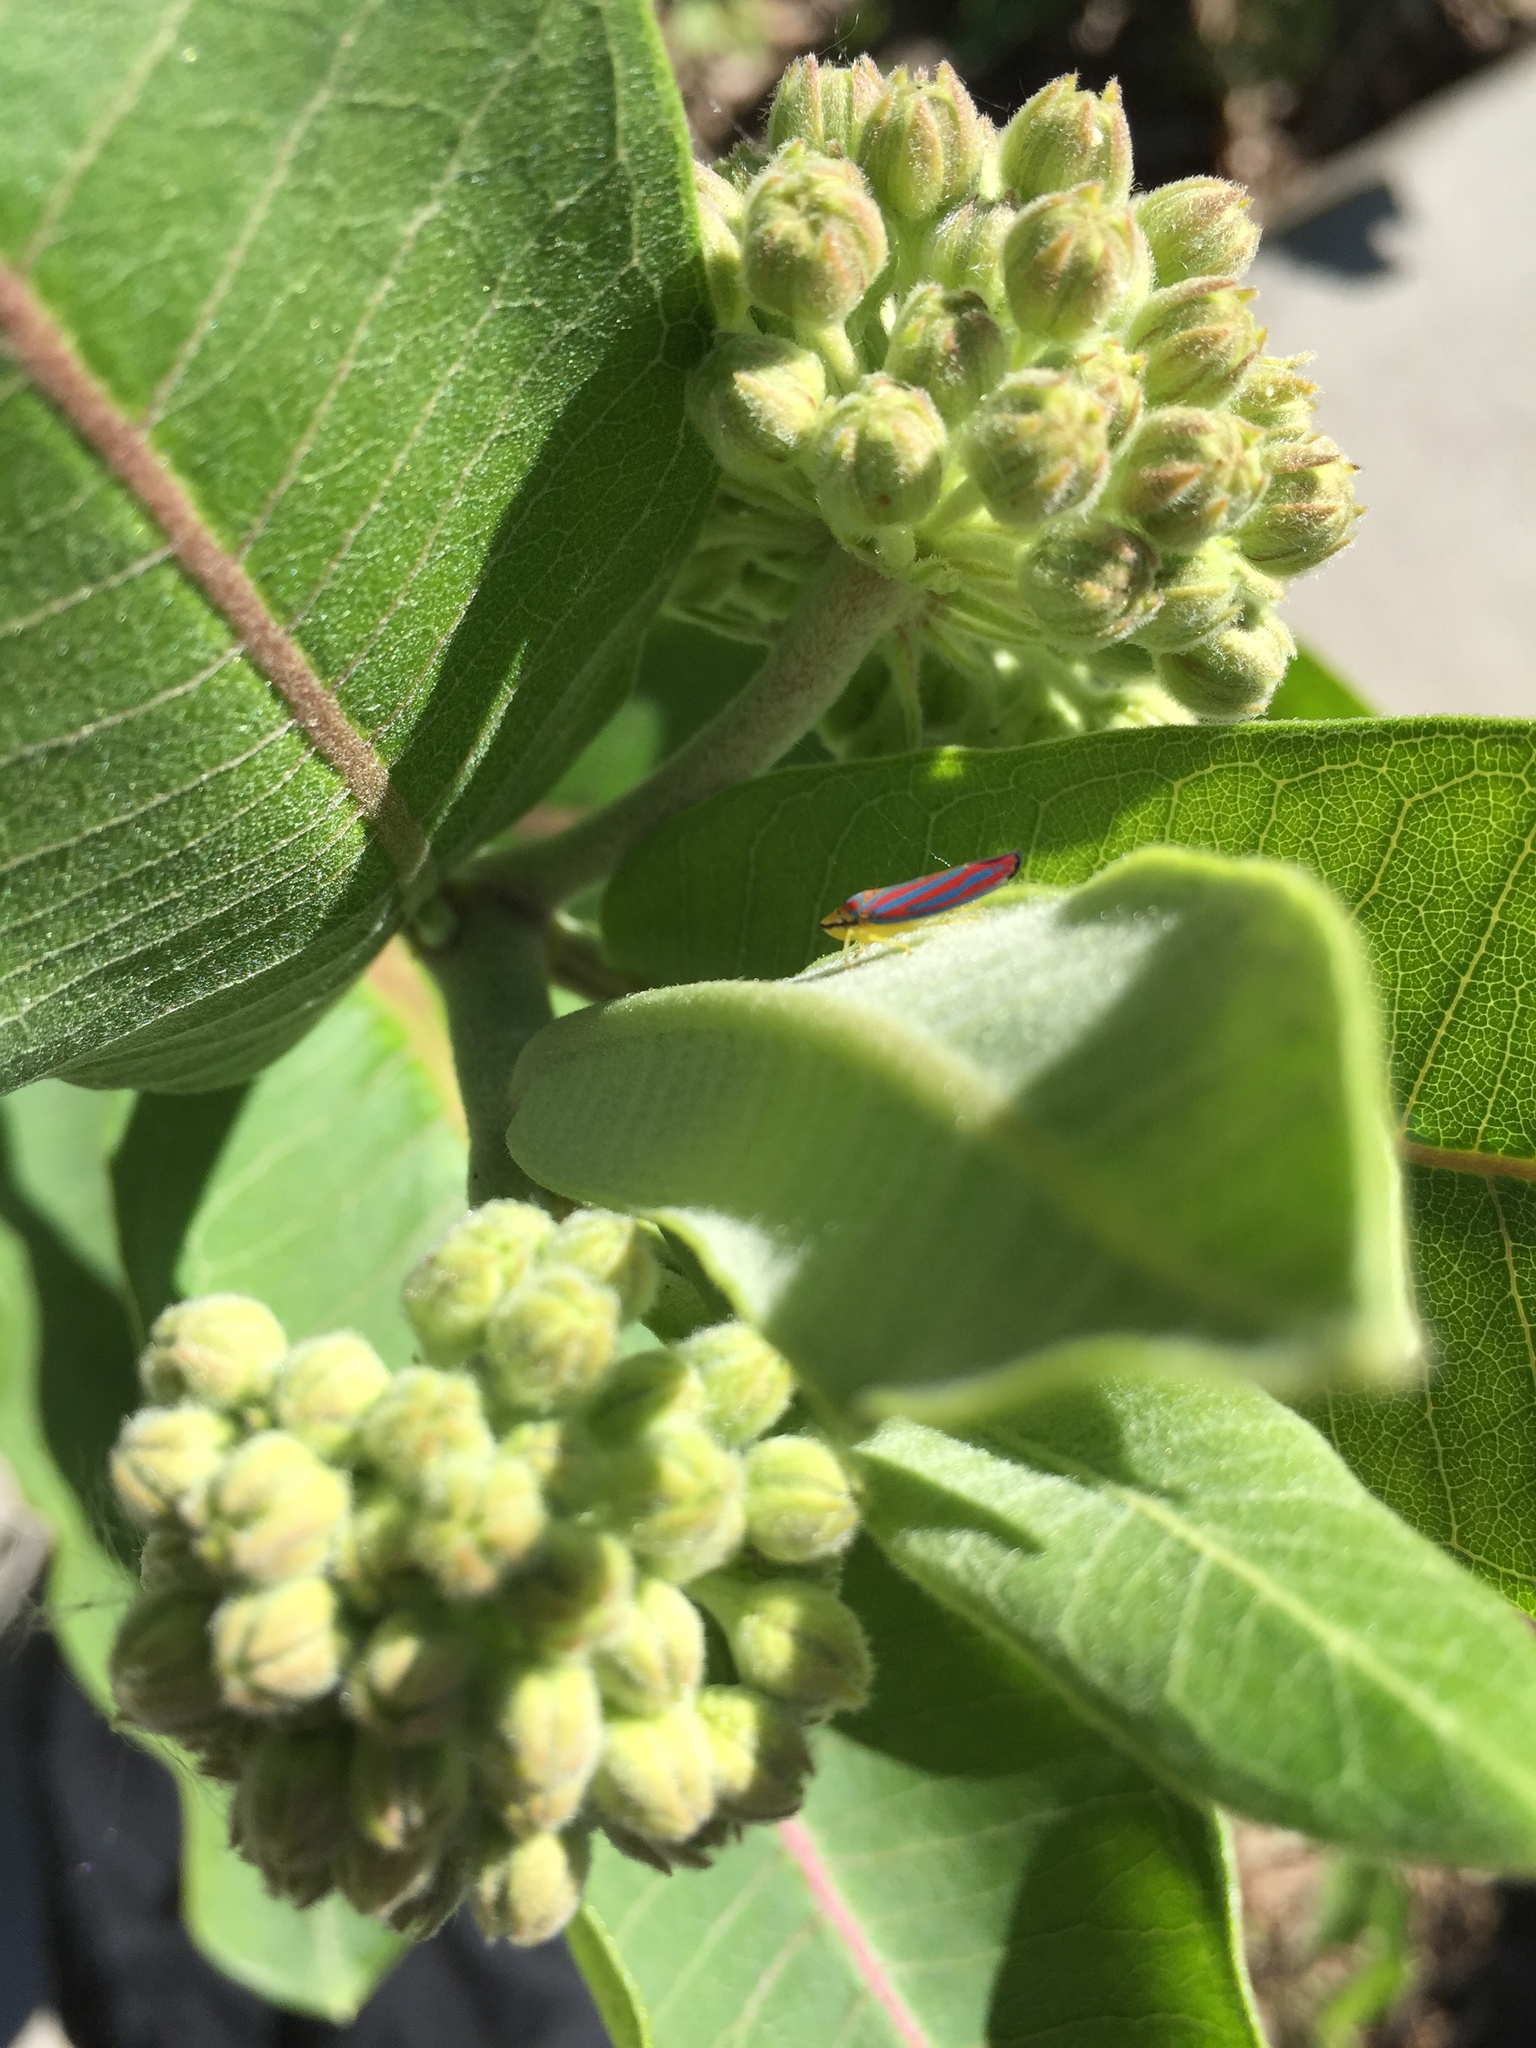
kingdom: Animalia
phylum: Arthropoda
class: Insecta
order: Hemiptera
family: Cicadellidae
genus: Graphocephala
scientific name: Graphocephala coccinea
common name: Candy-striped leafhopper
